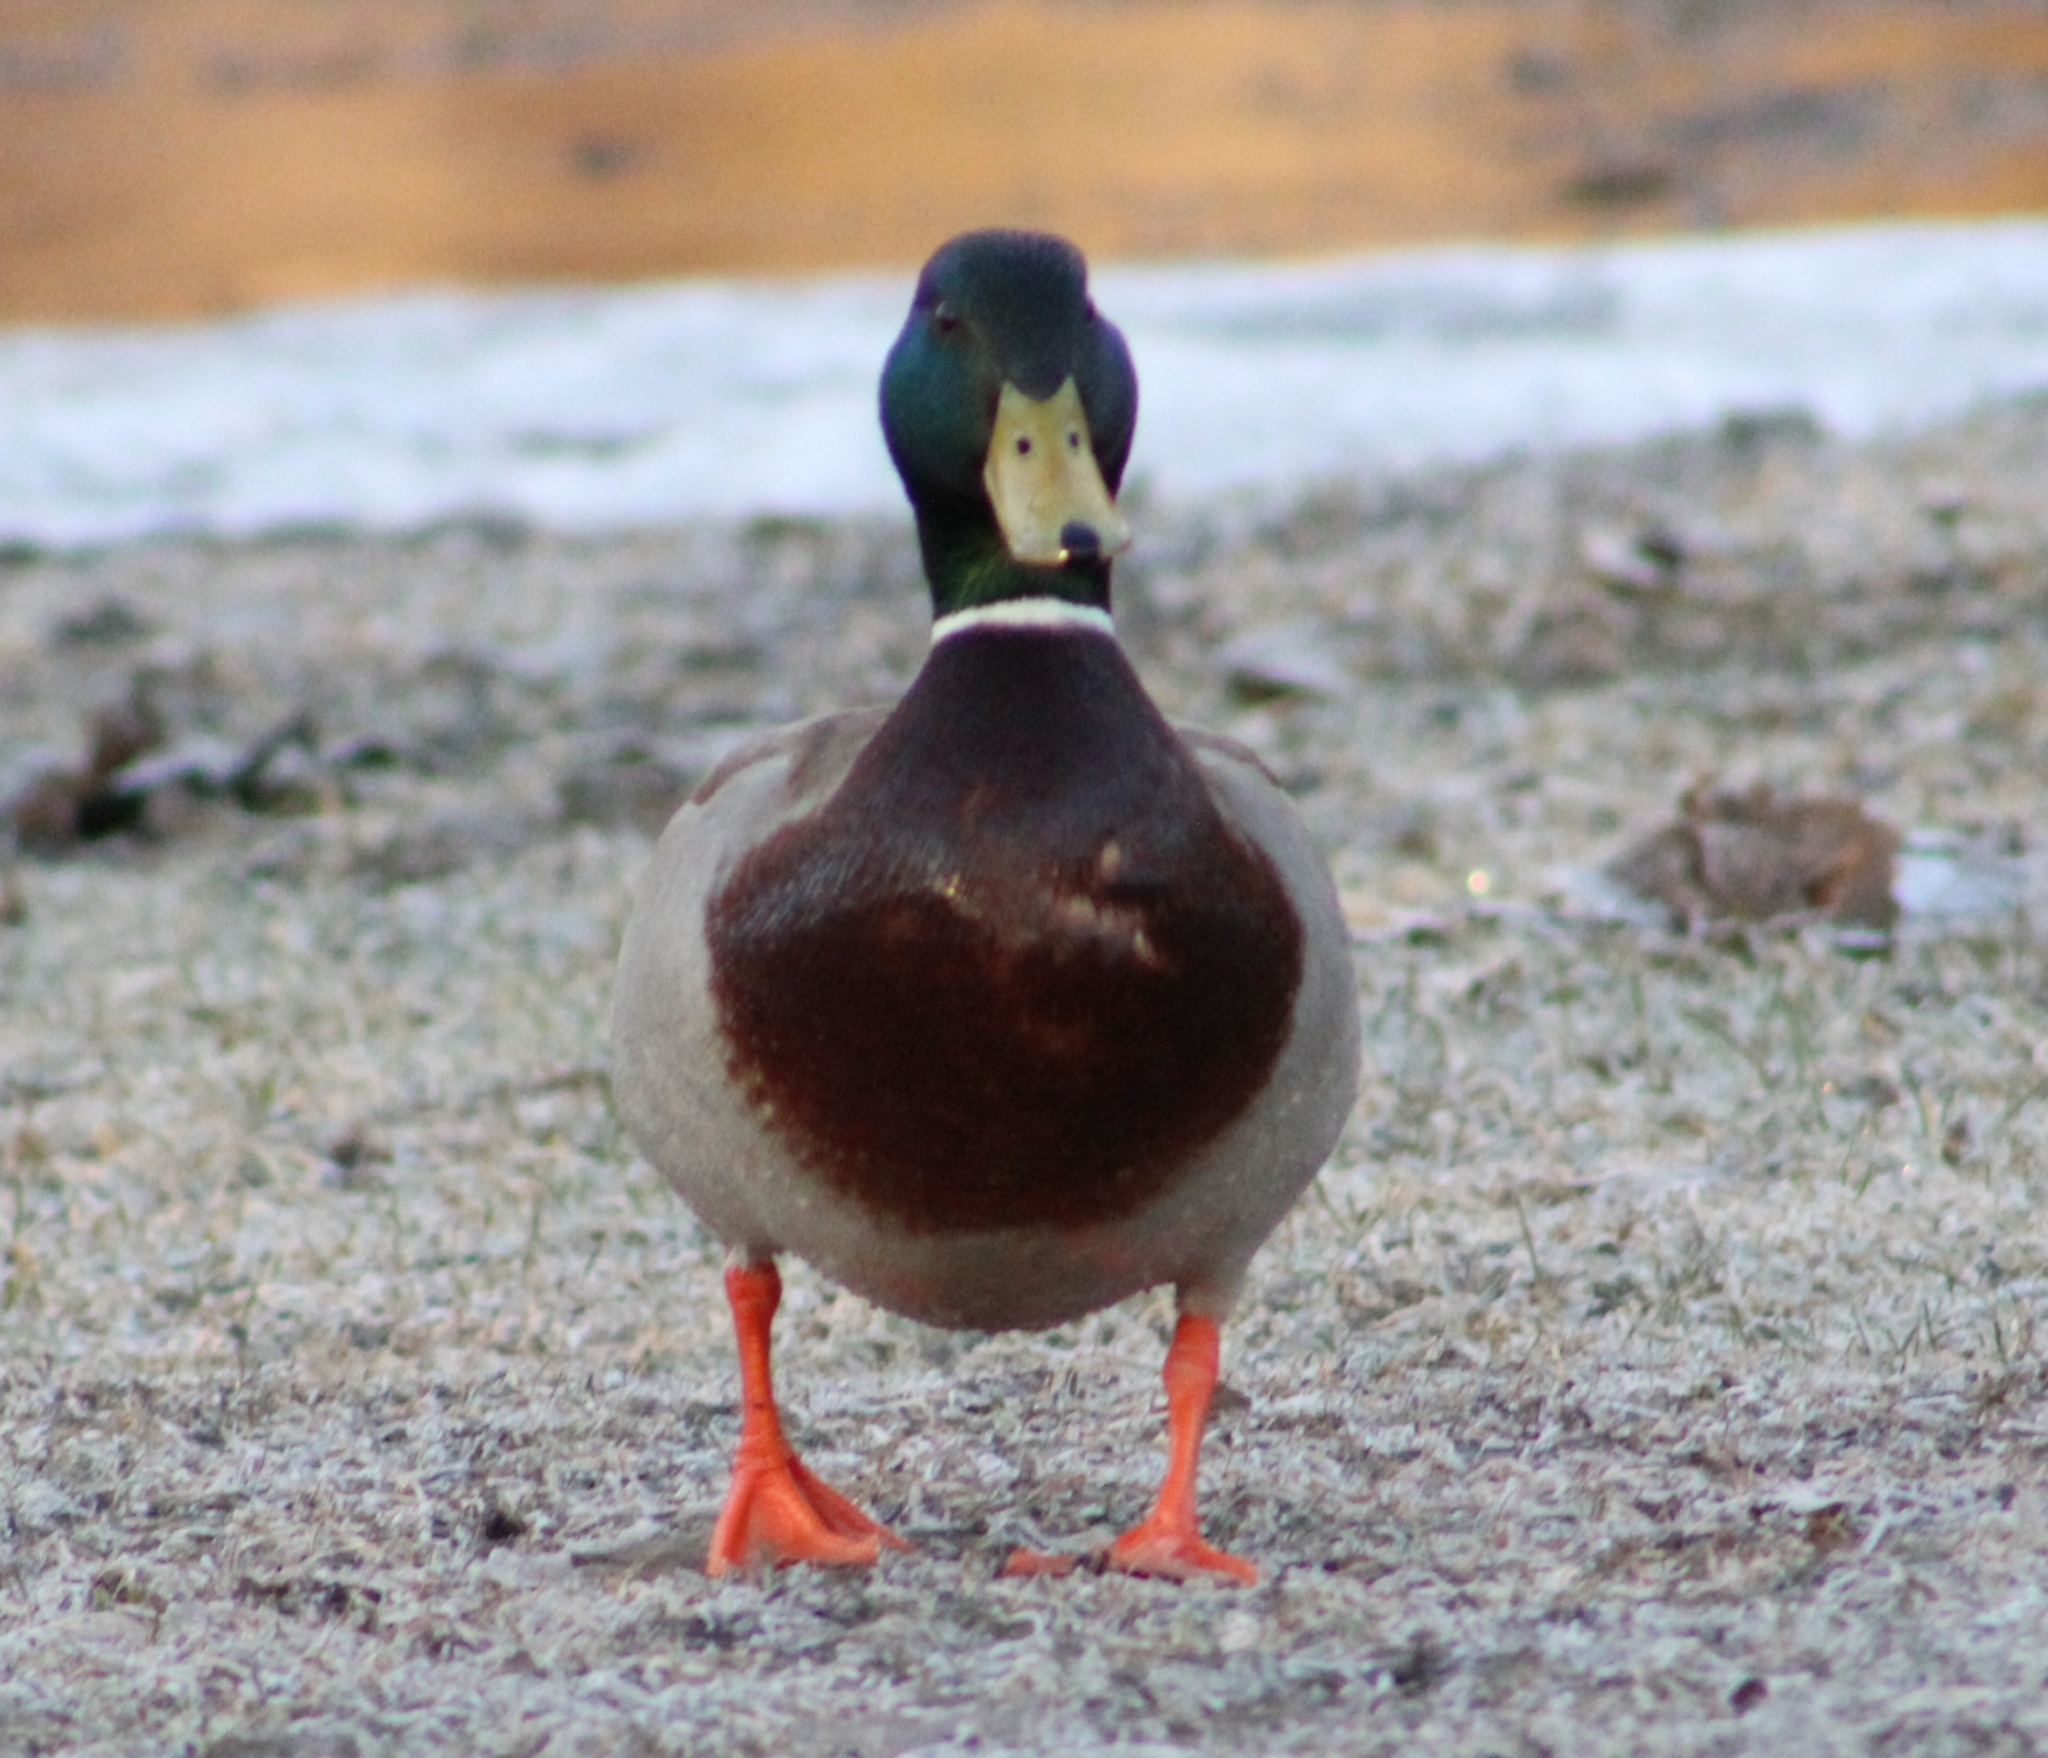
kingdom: Animalia
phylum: Chordata
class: Aves
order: Anseriformes
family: Anatidae
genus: Anas
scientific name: Anas platyrhynchos
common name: Mallard
